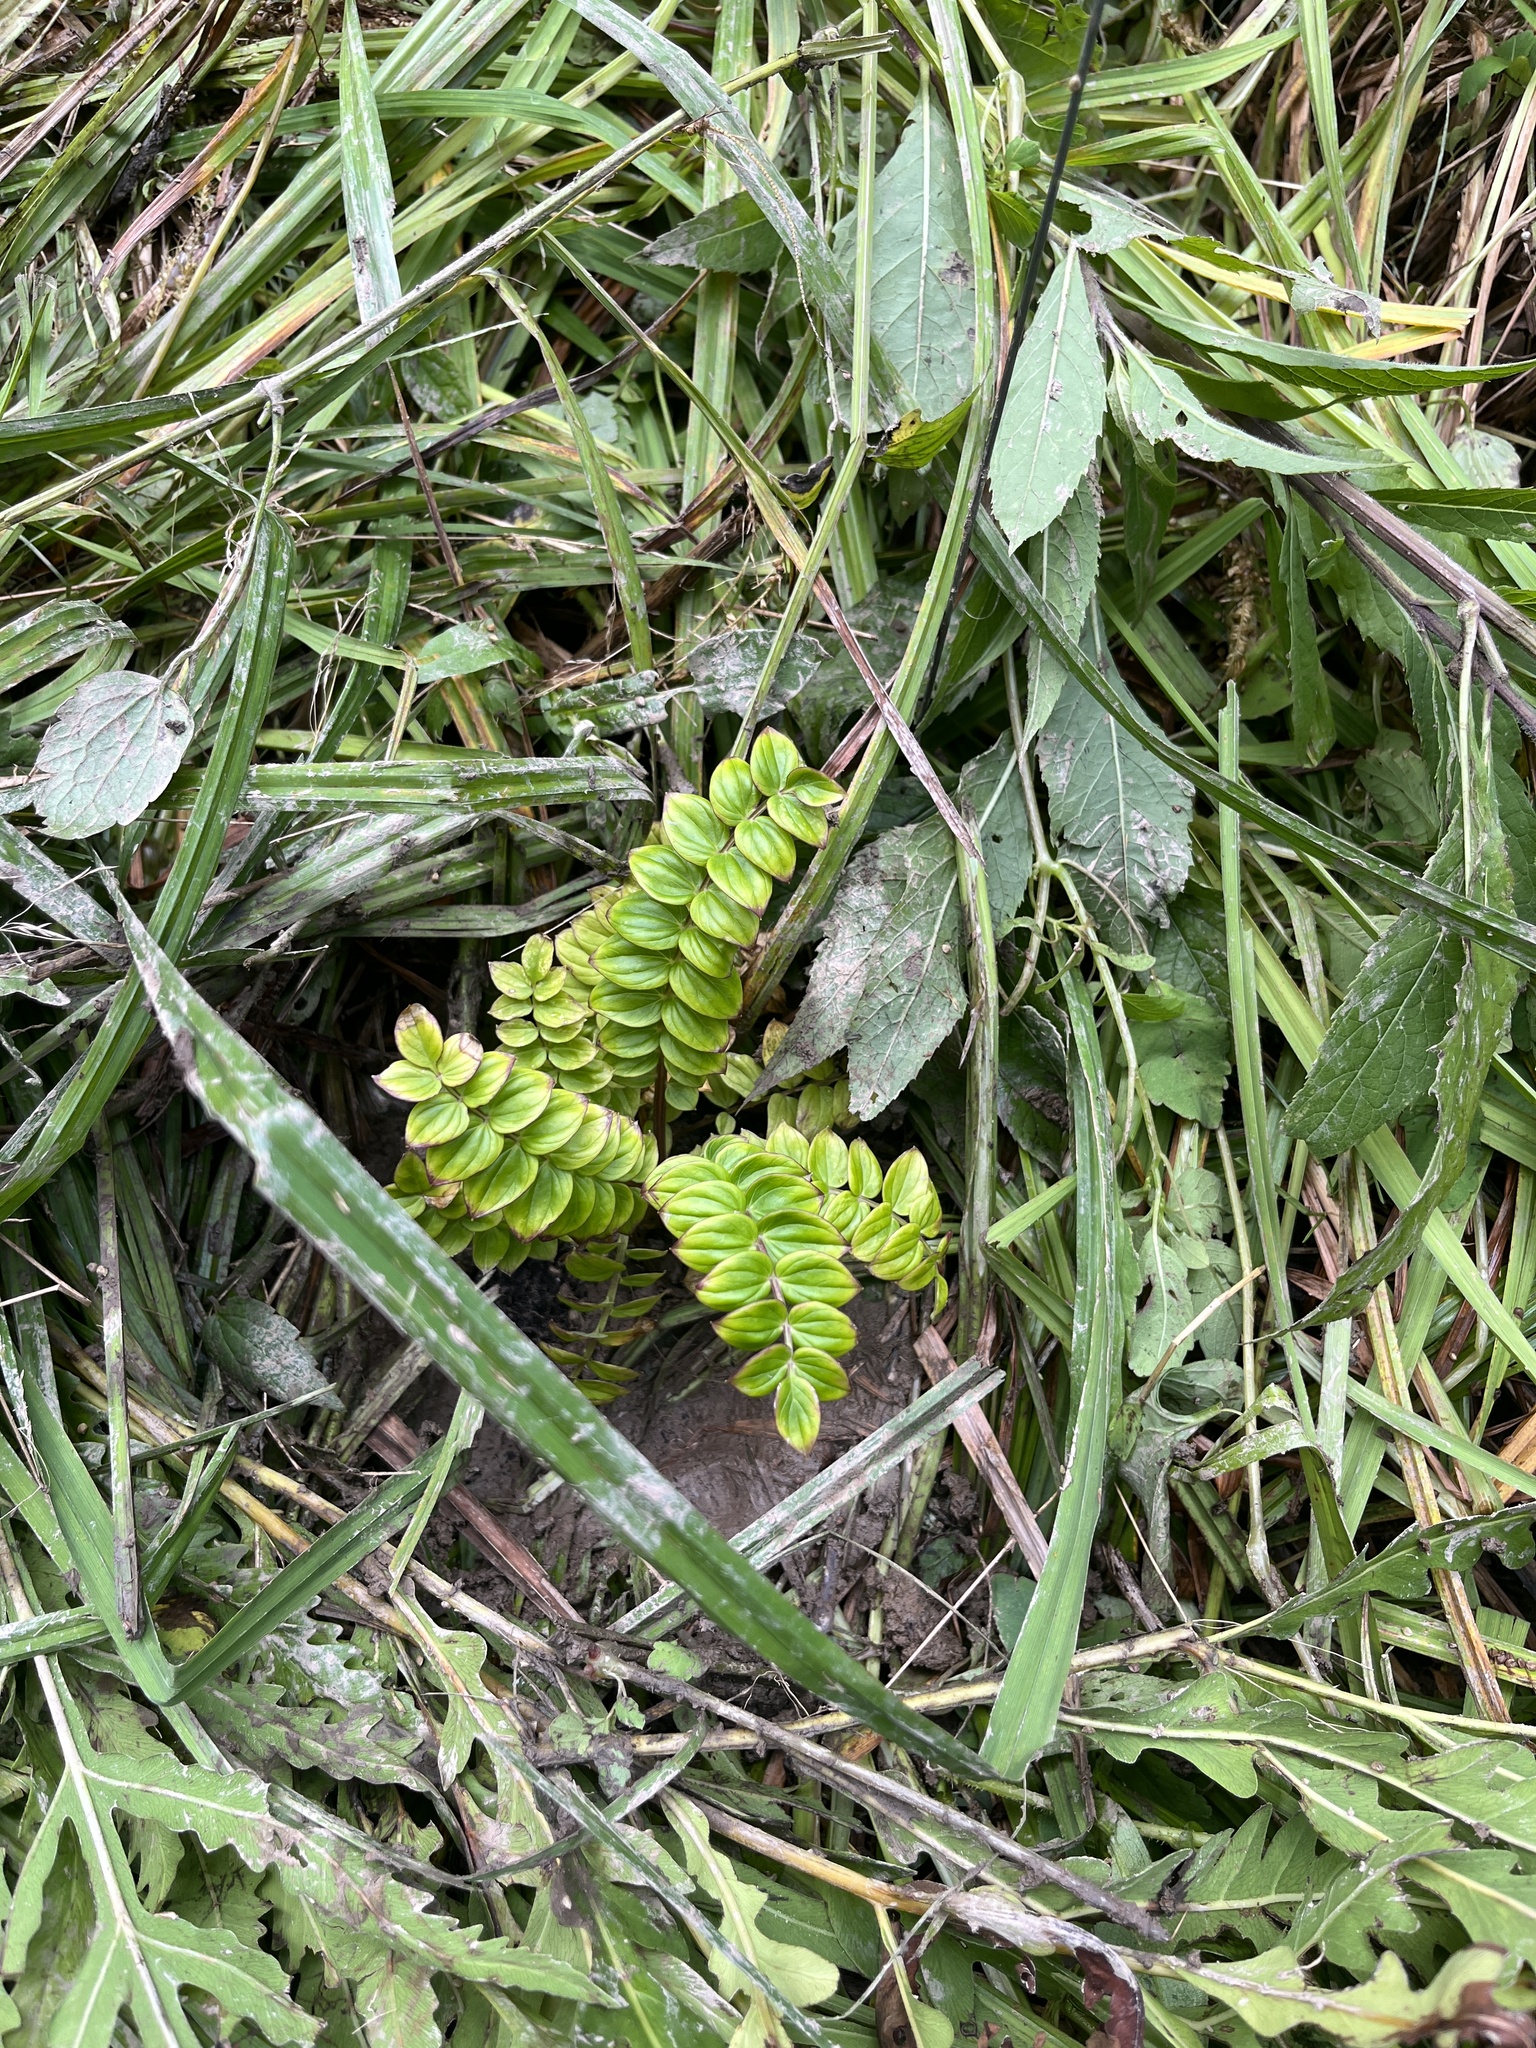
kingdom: Plantae
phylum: Tracheophyta
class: Magnoliopsida
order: Ericales
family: Polemoniaceae
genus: Polemonium
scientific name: Polemonium vanbruntiae
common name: Bog jacob's-ladder
